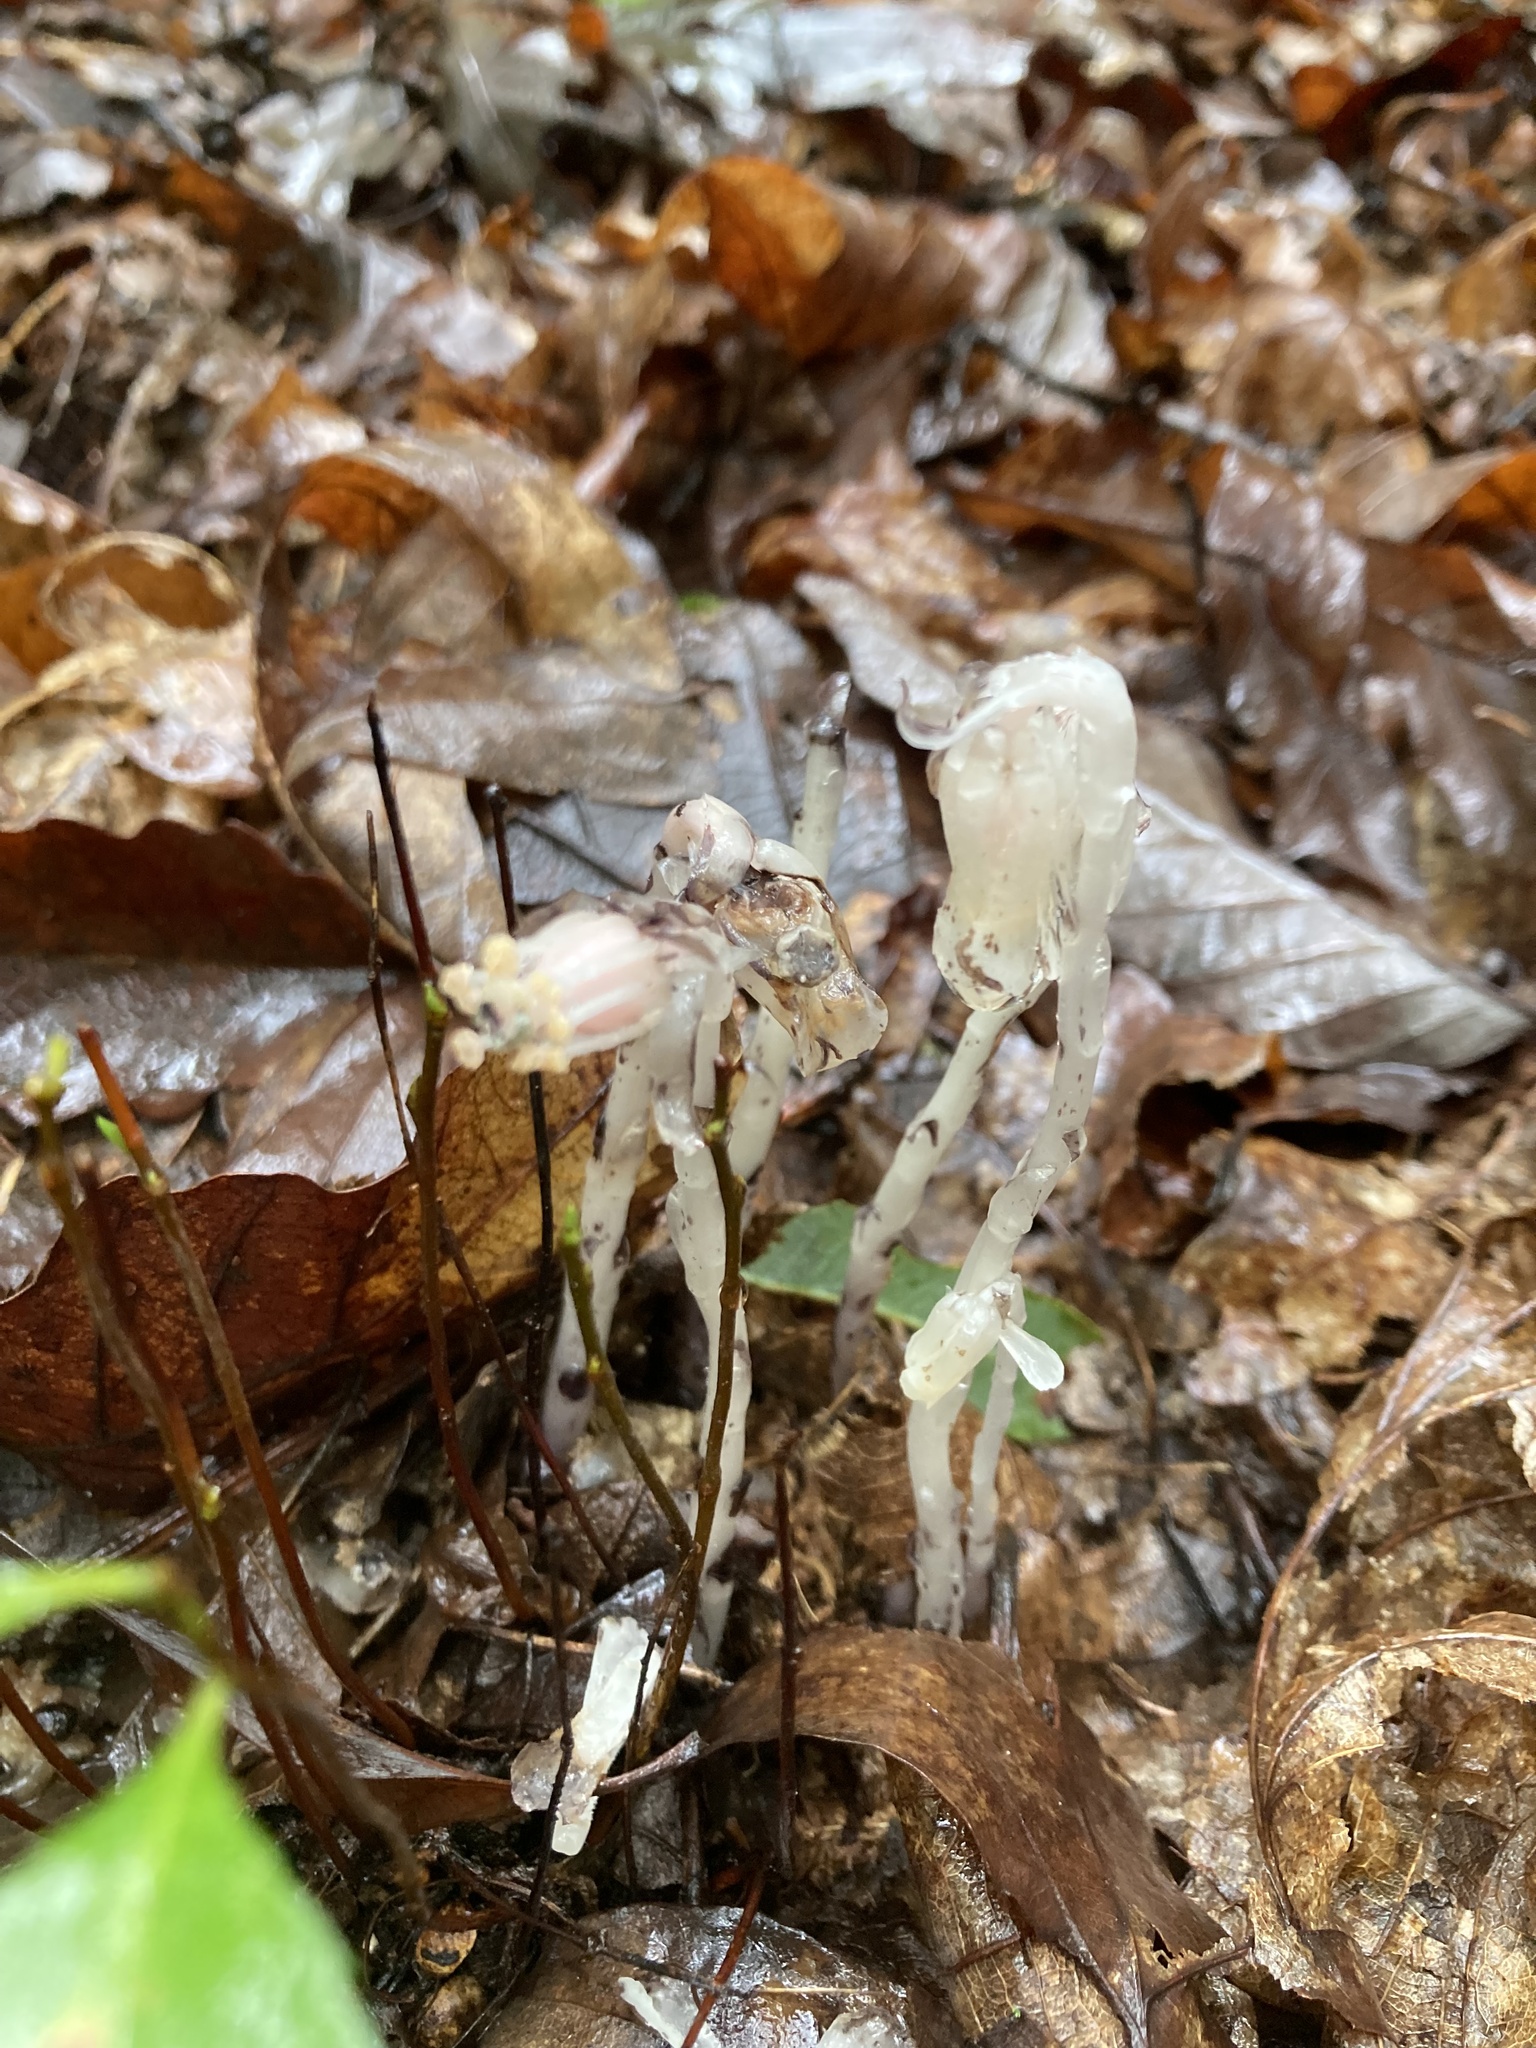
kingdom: Plantae
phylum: Tracheophyta
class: Magnoliopsida
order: Ericales
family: Ericaceae
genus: Monotropa
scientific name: Monotropa uniflora
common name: Convulsion root
